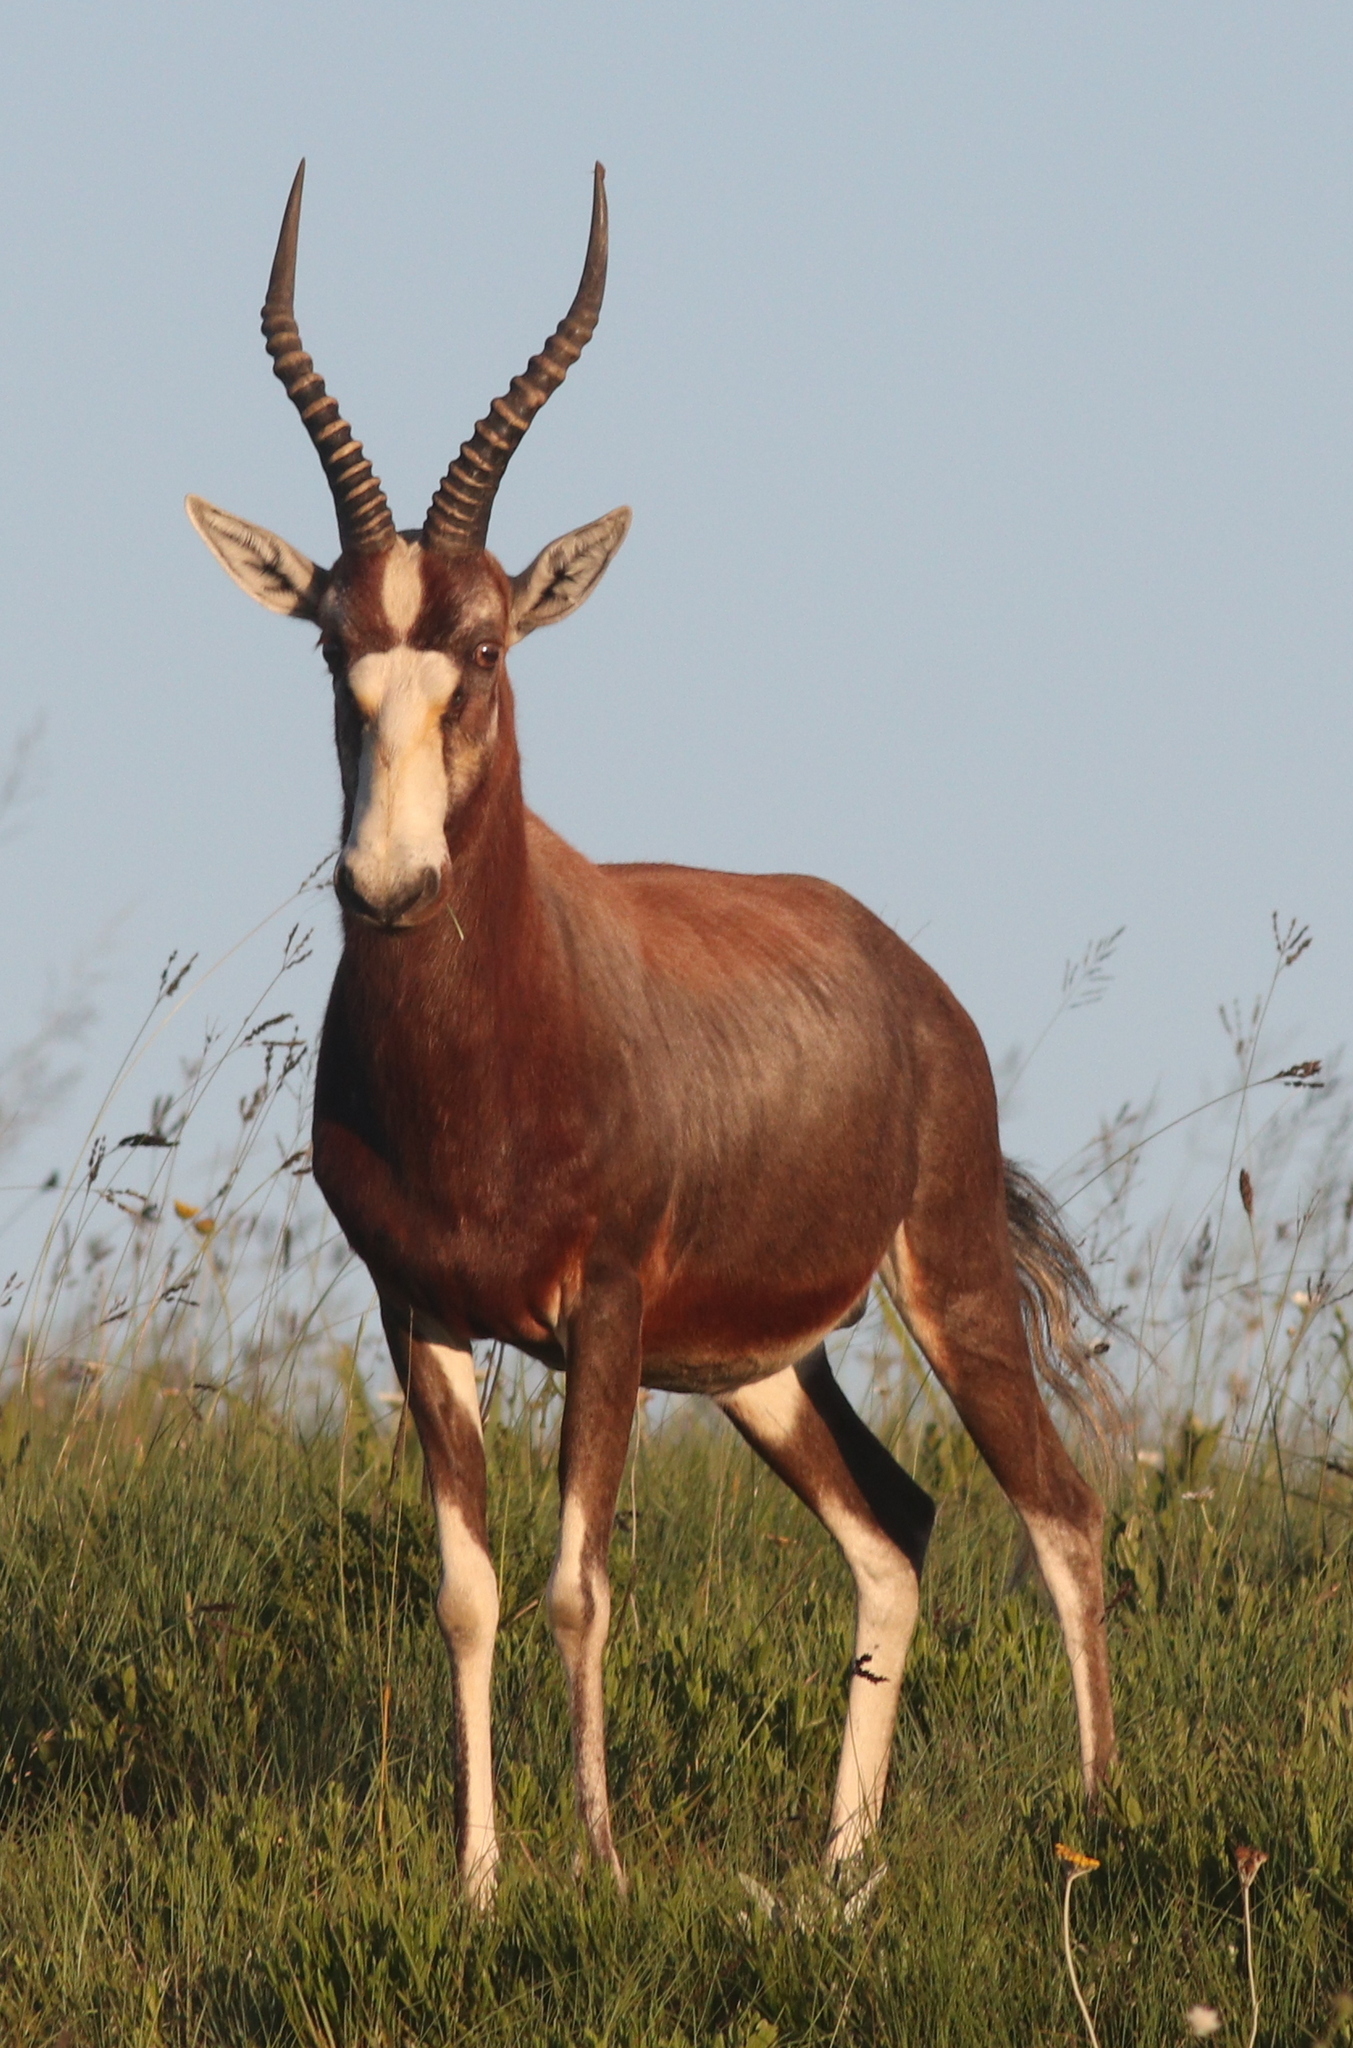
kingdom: Animalia
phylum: Chordata
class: Mammalia
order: Artiodactyla
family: Bovidae
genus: Damaliscus
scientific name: Damaliscus pygargus
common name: Bontebok
